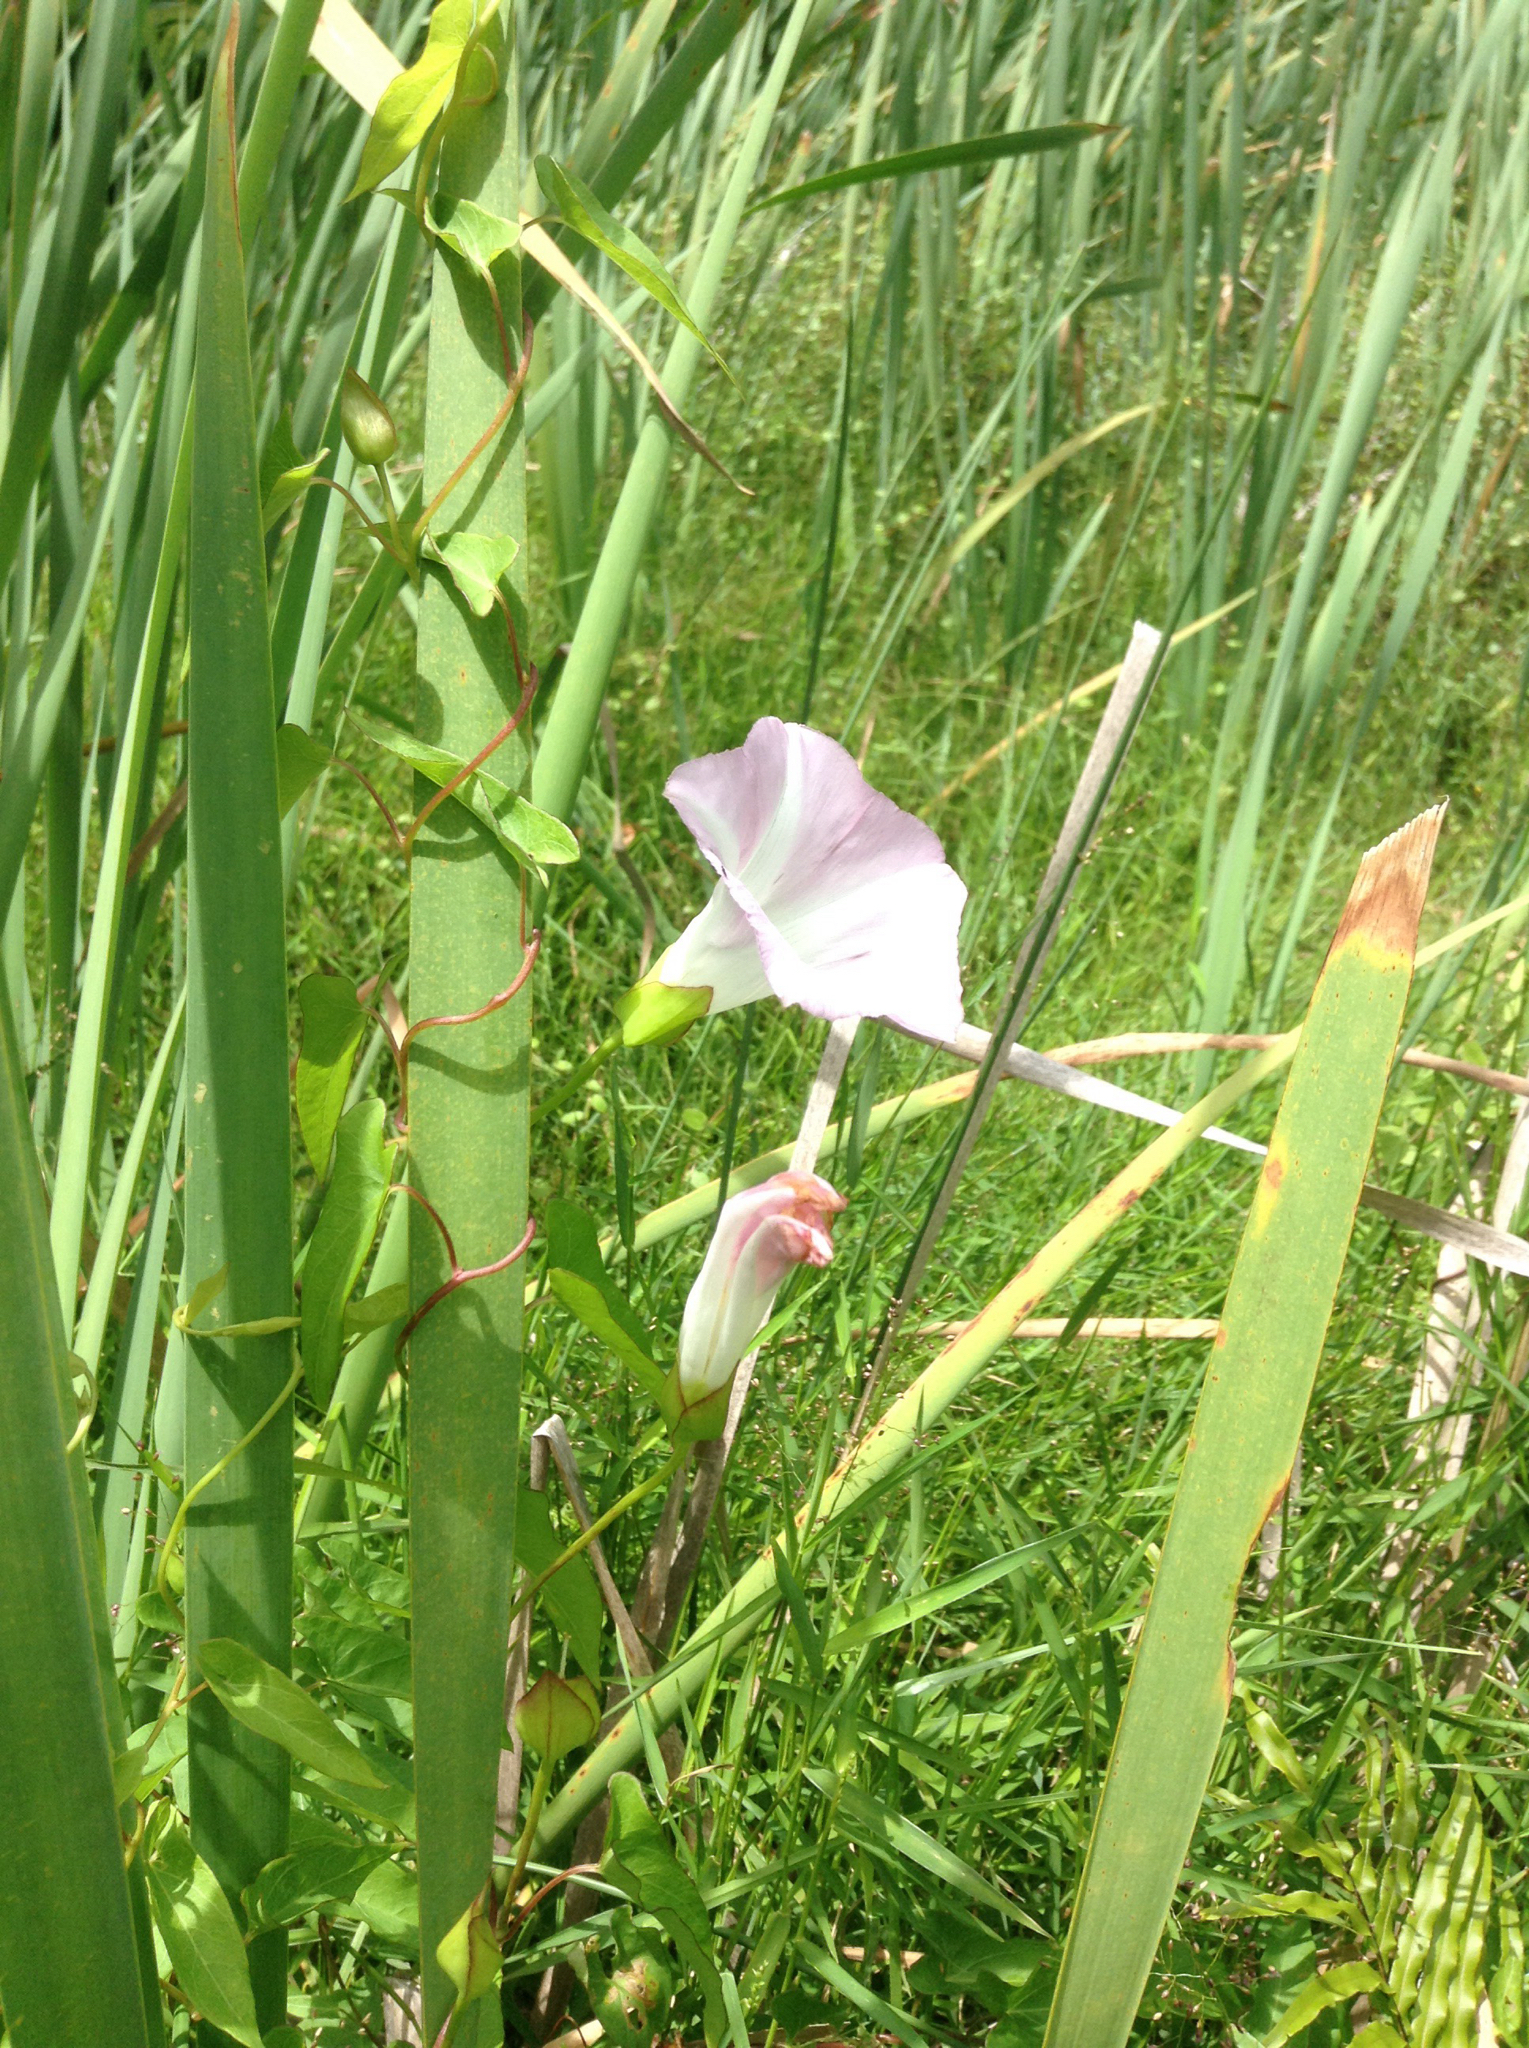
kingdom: Plantae
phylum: Tracheophyta
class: Magnoliopsida
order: Solanales
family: Convolvulaceae
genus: Calystegia
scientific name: Calystegia sepium
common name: Hedge bindweed
